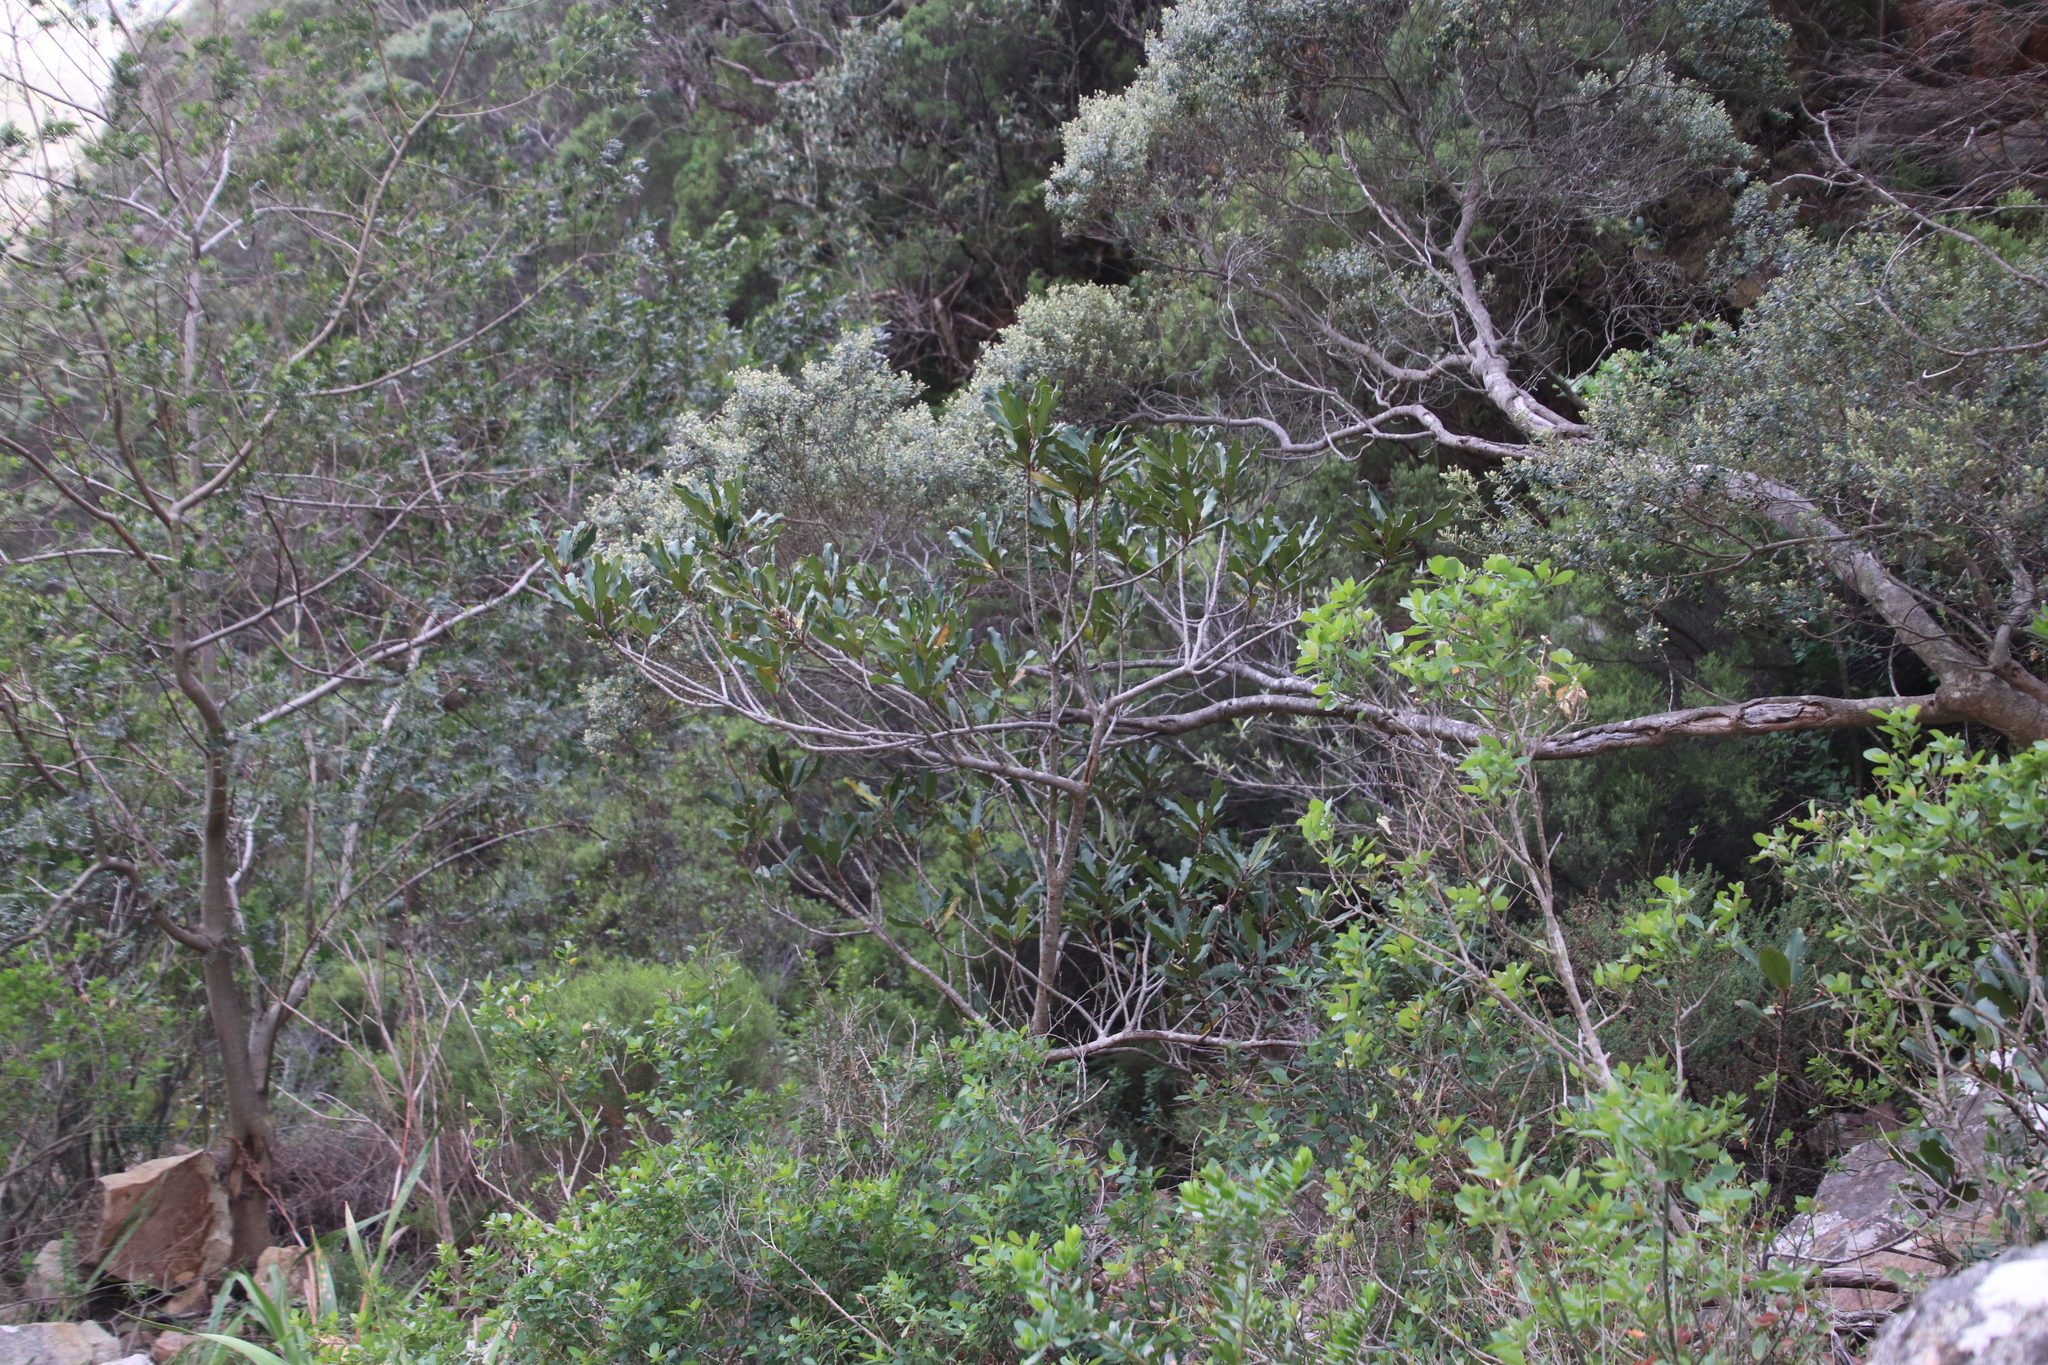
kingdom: Plantae
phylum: Tracheophyta
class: Magnoliopsida
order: Ericales
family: Primulaceae
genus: Myrsine
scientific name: Myrsine melanophloeos
